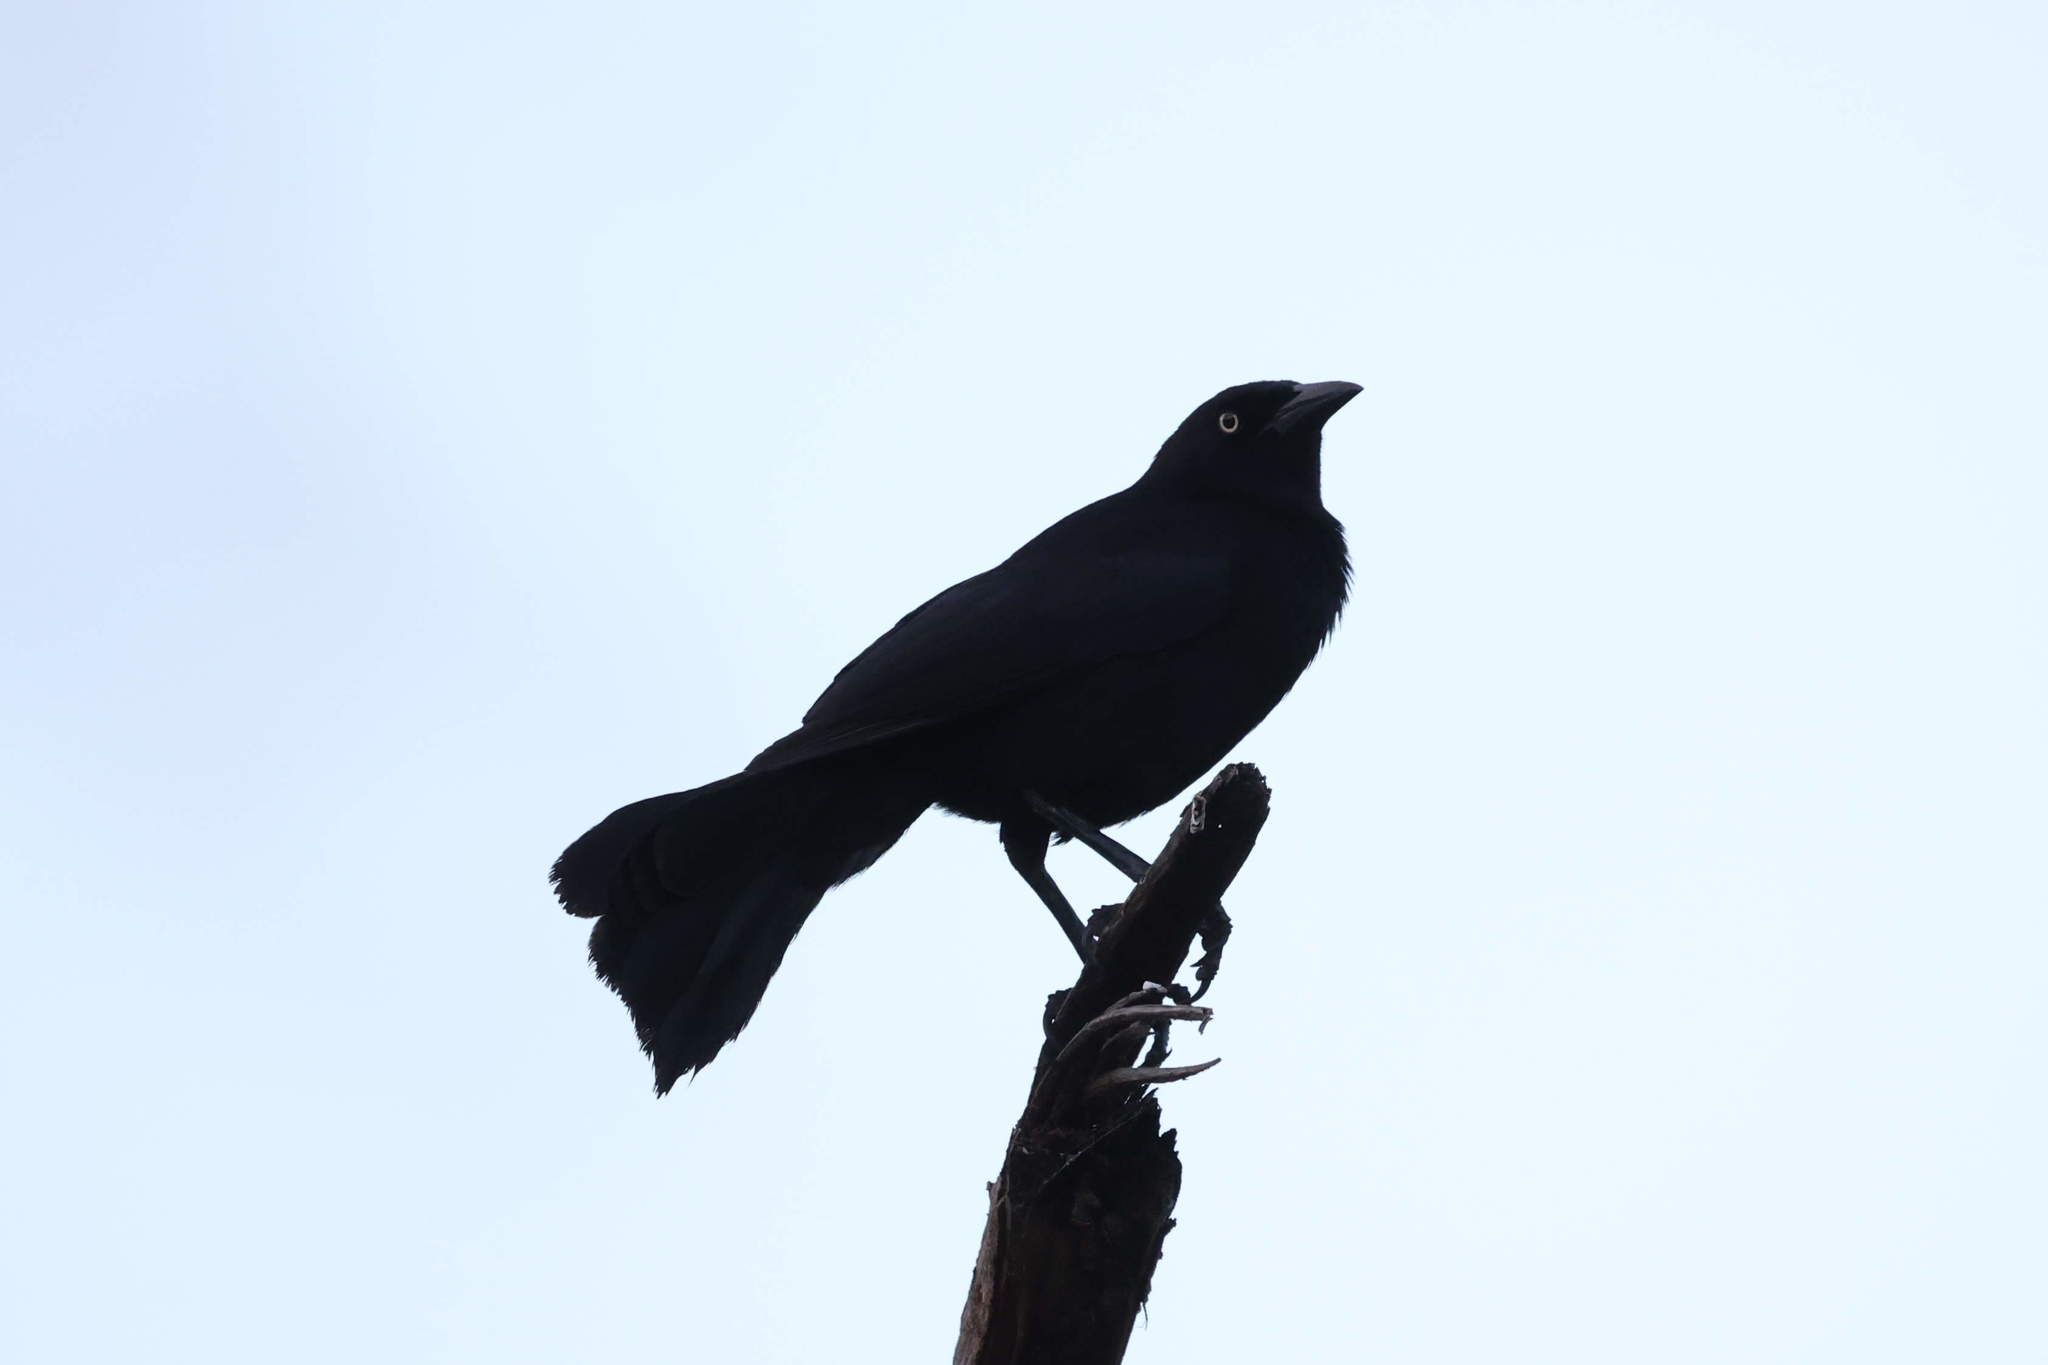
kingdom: Animalia
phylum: Chordata
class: Aves
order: Passeriformes
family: Icteridae
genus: Quiscalus
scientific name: Quiscalus lugubris
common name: Carib grackle
